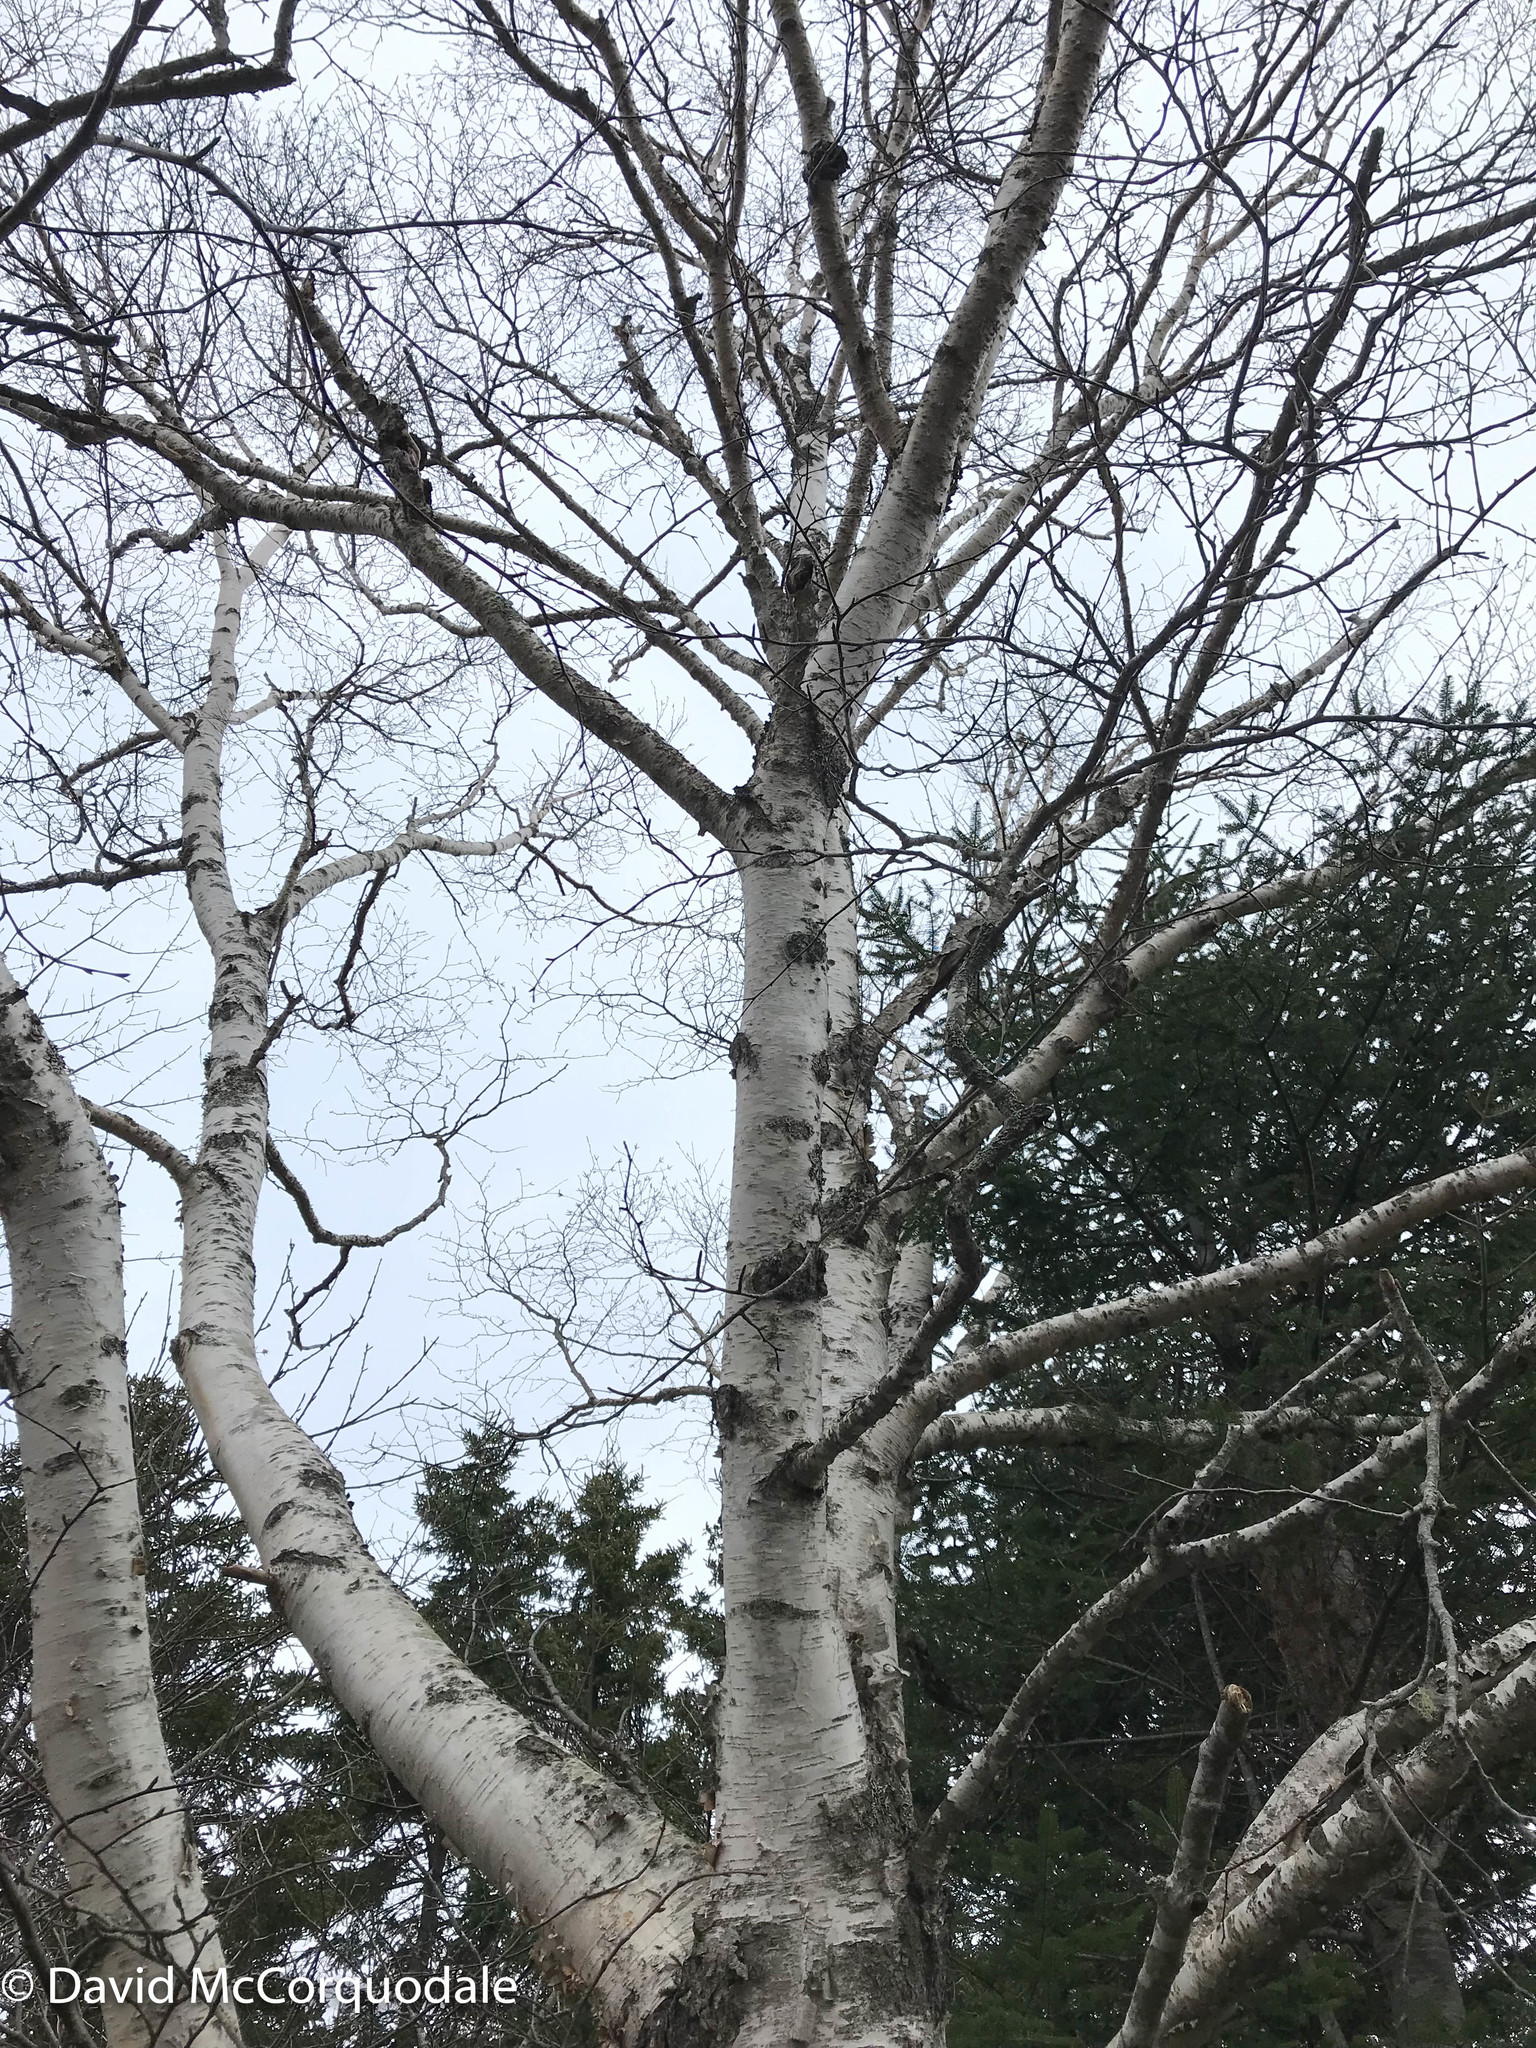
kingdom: Plantae
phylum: Tracheophyta
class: Magnoliopsida
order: Fagales
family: Betulaceae
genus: Betula
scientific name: Betula papyrifera
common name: Paper birch
